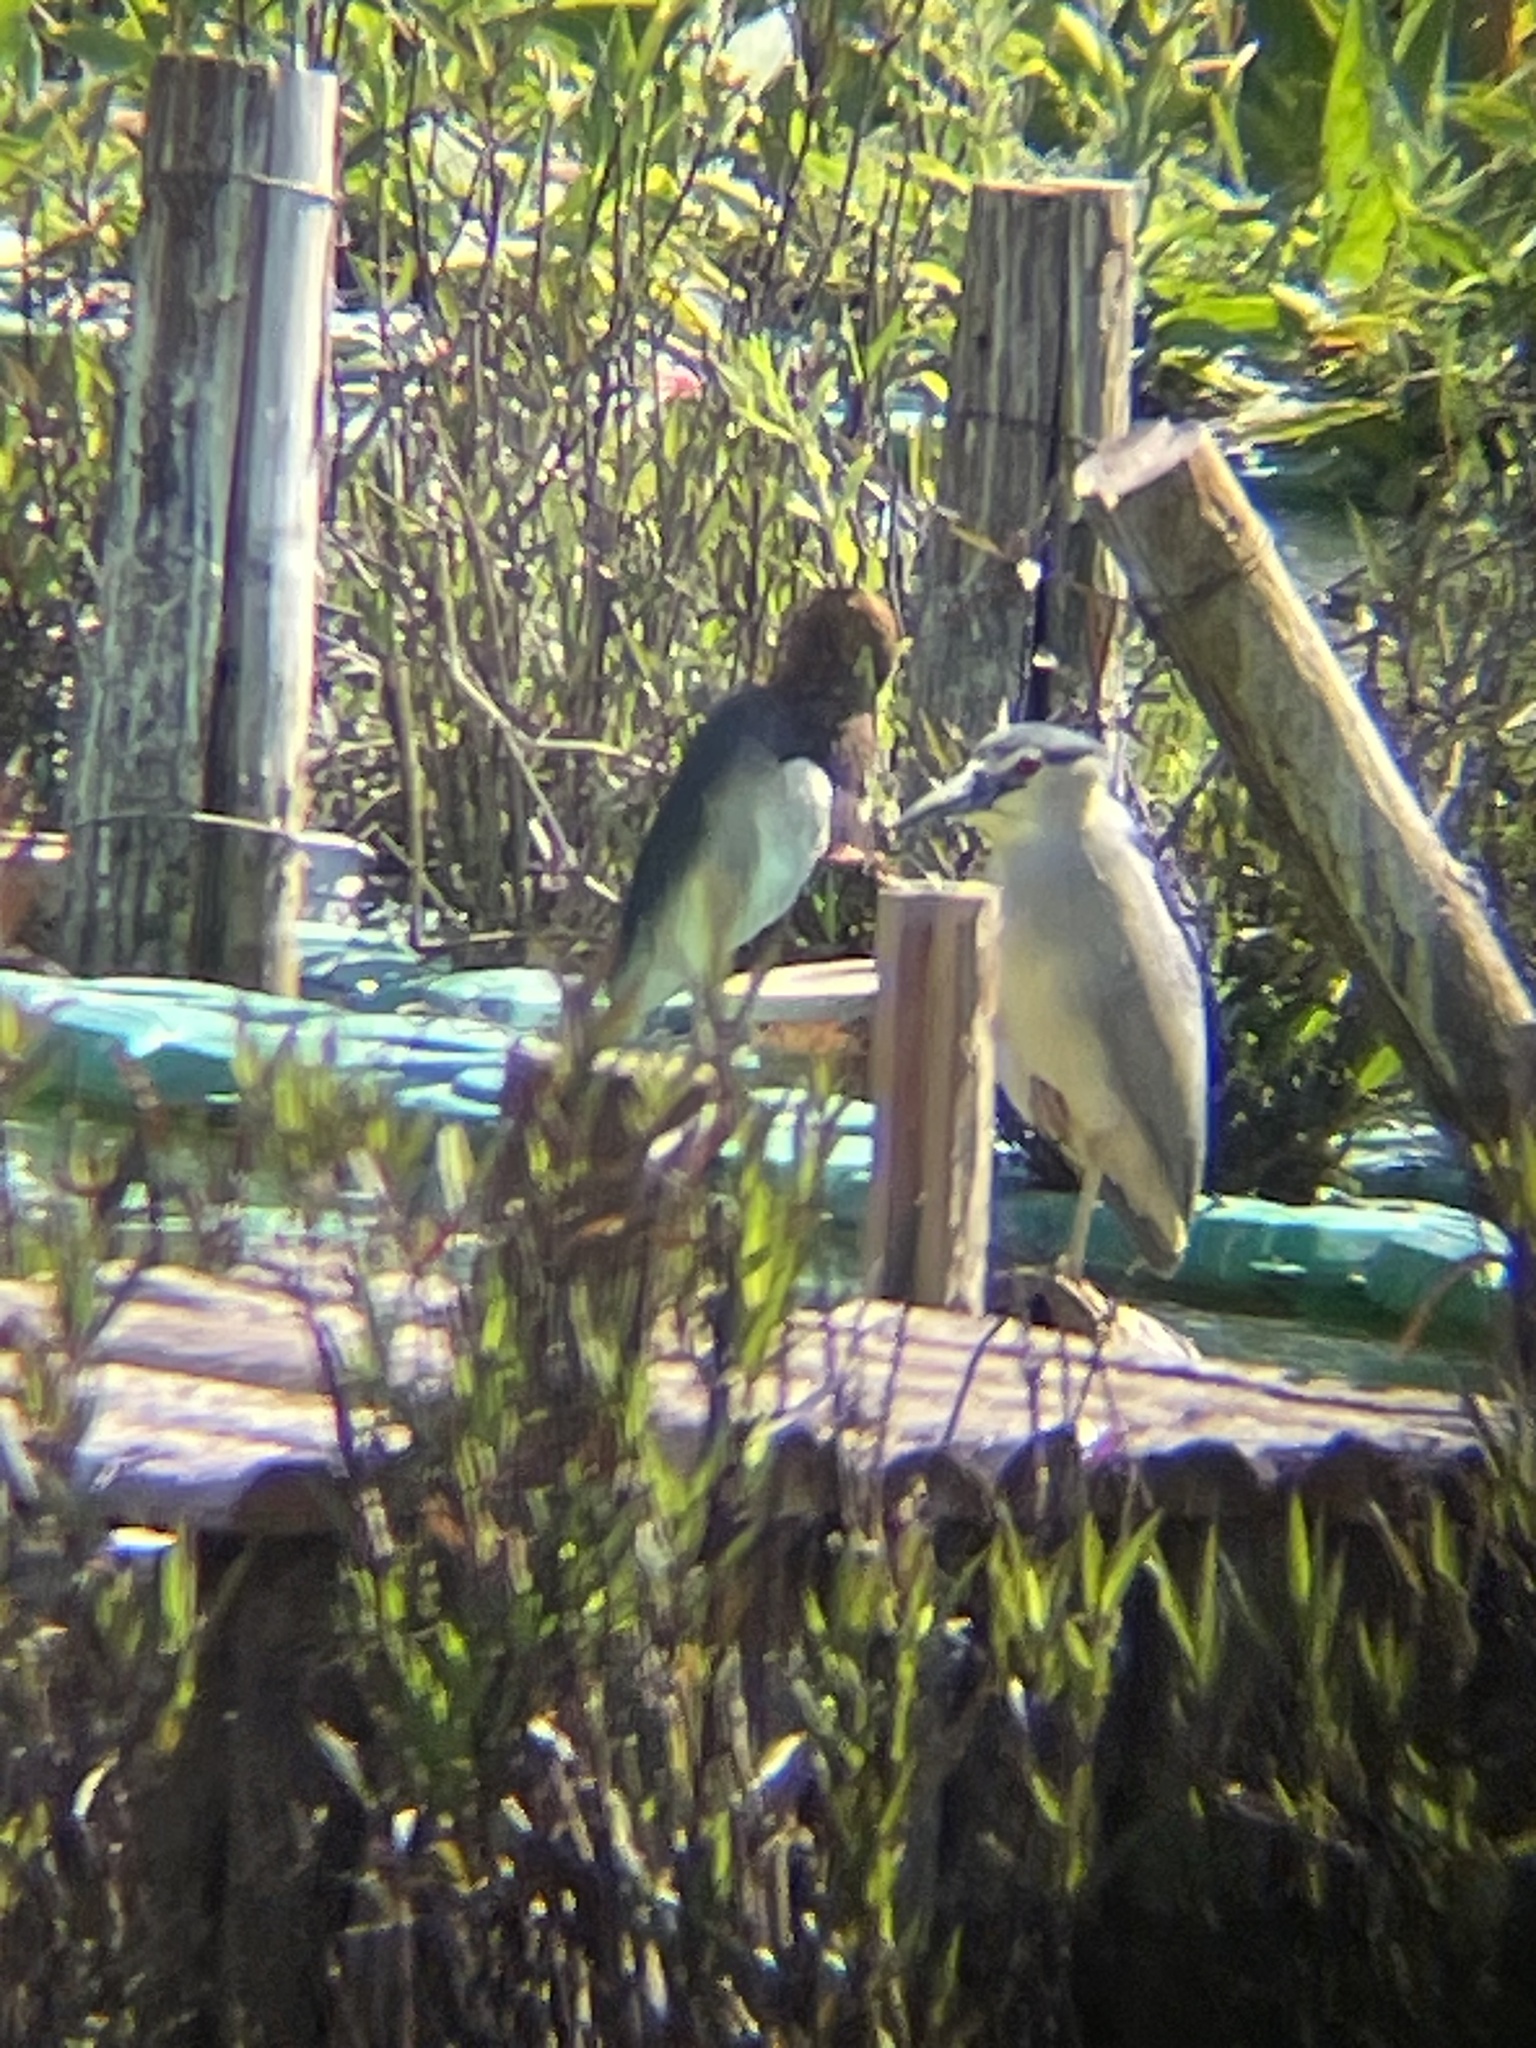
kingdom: Animalia
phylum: Chordata
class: Aves
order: Pelecaniformes
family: Ardeidae
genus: Nycticorax
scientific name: Nycticorax nycticorax
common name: Black-crowned night heron
